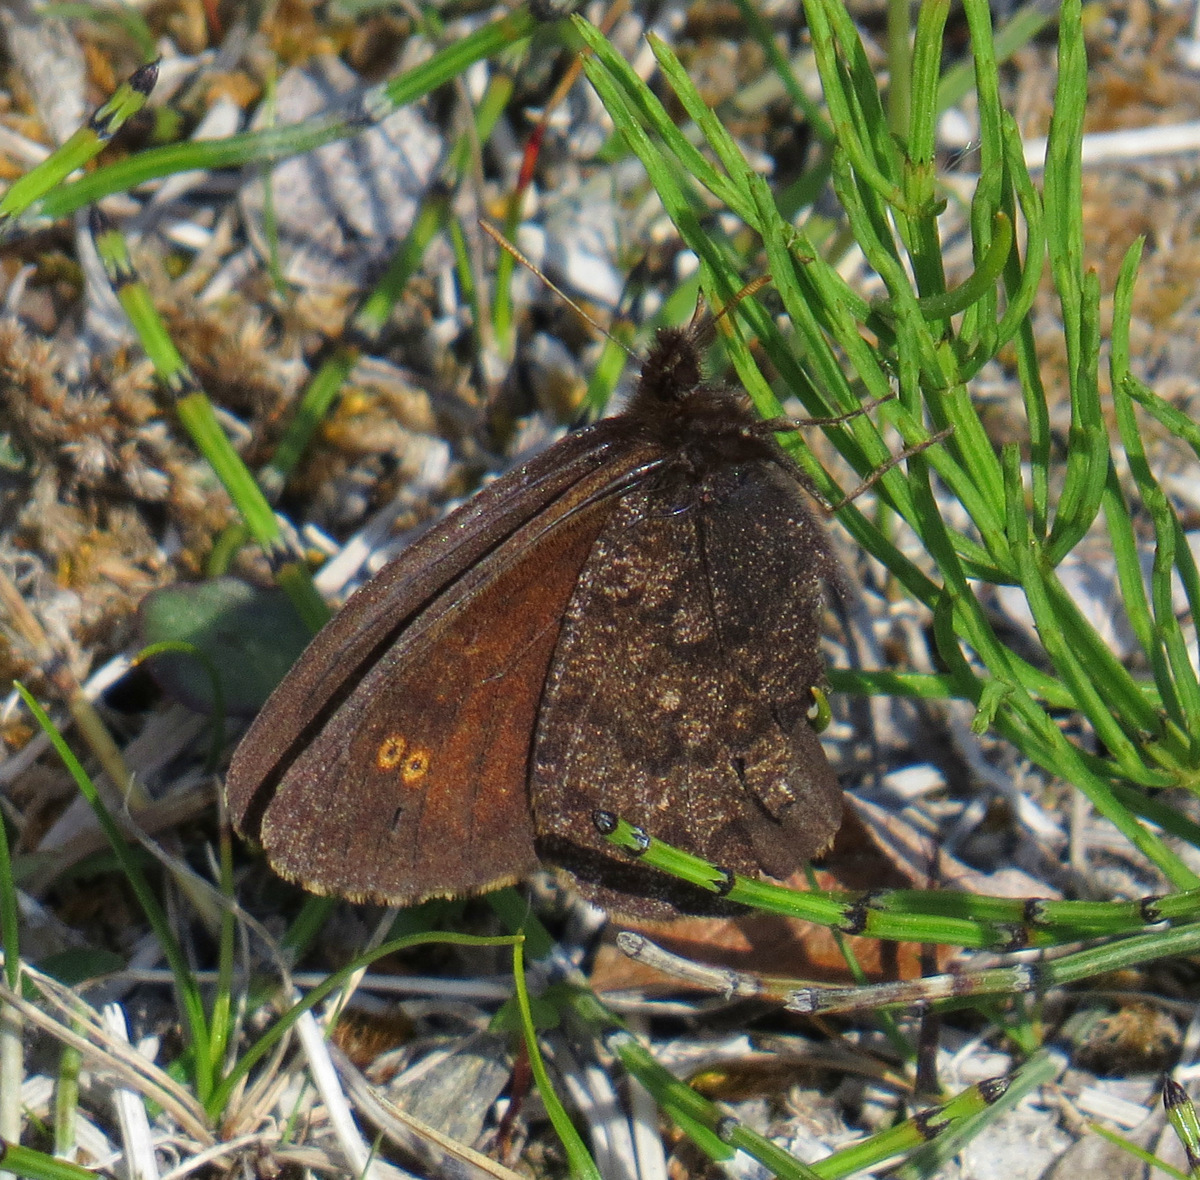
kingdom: Animalia
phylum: Arthropoda
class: Insecta
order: Lepidoptera
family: Nymphalidae
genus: Erebia
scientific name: Erebia rossii
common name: Ross' alpine
